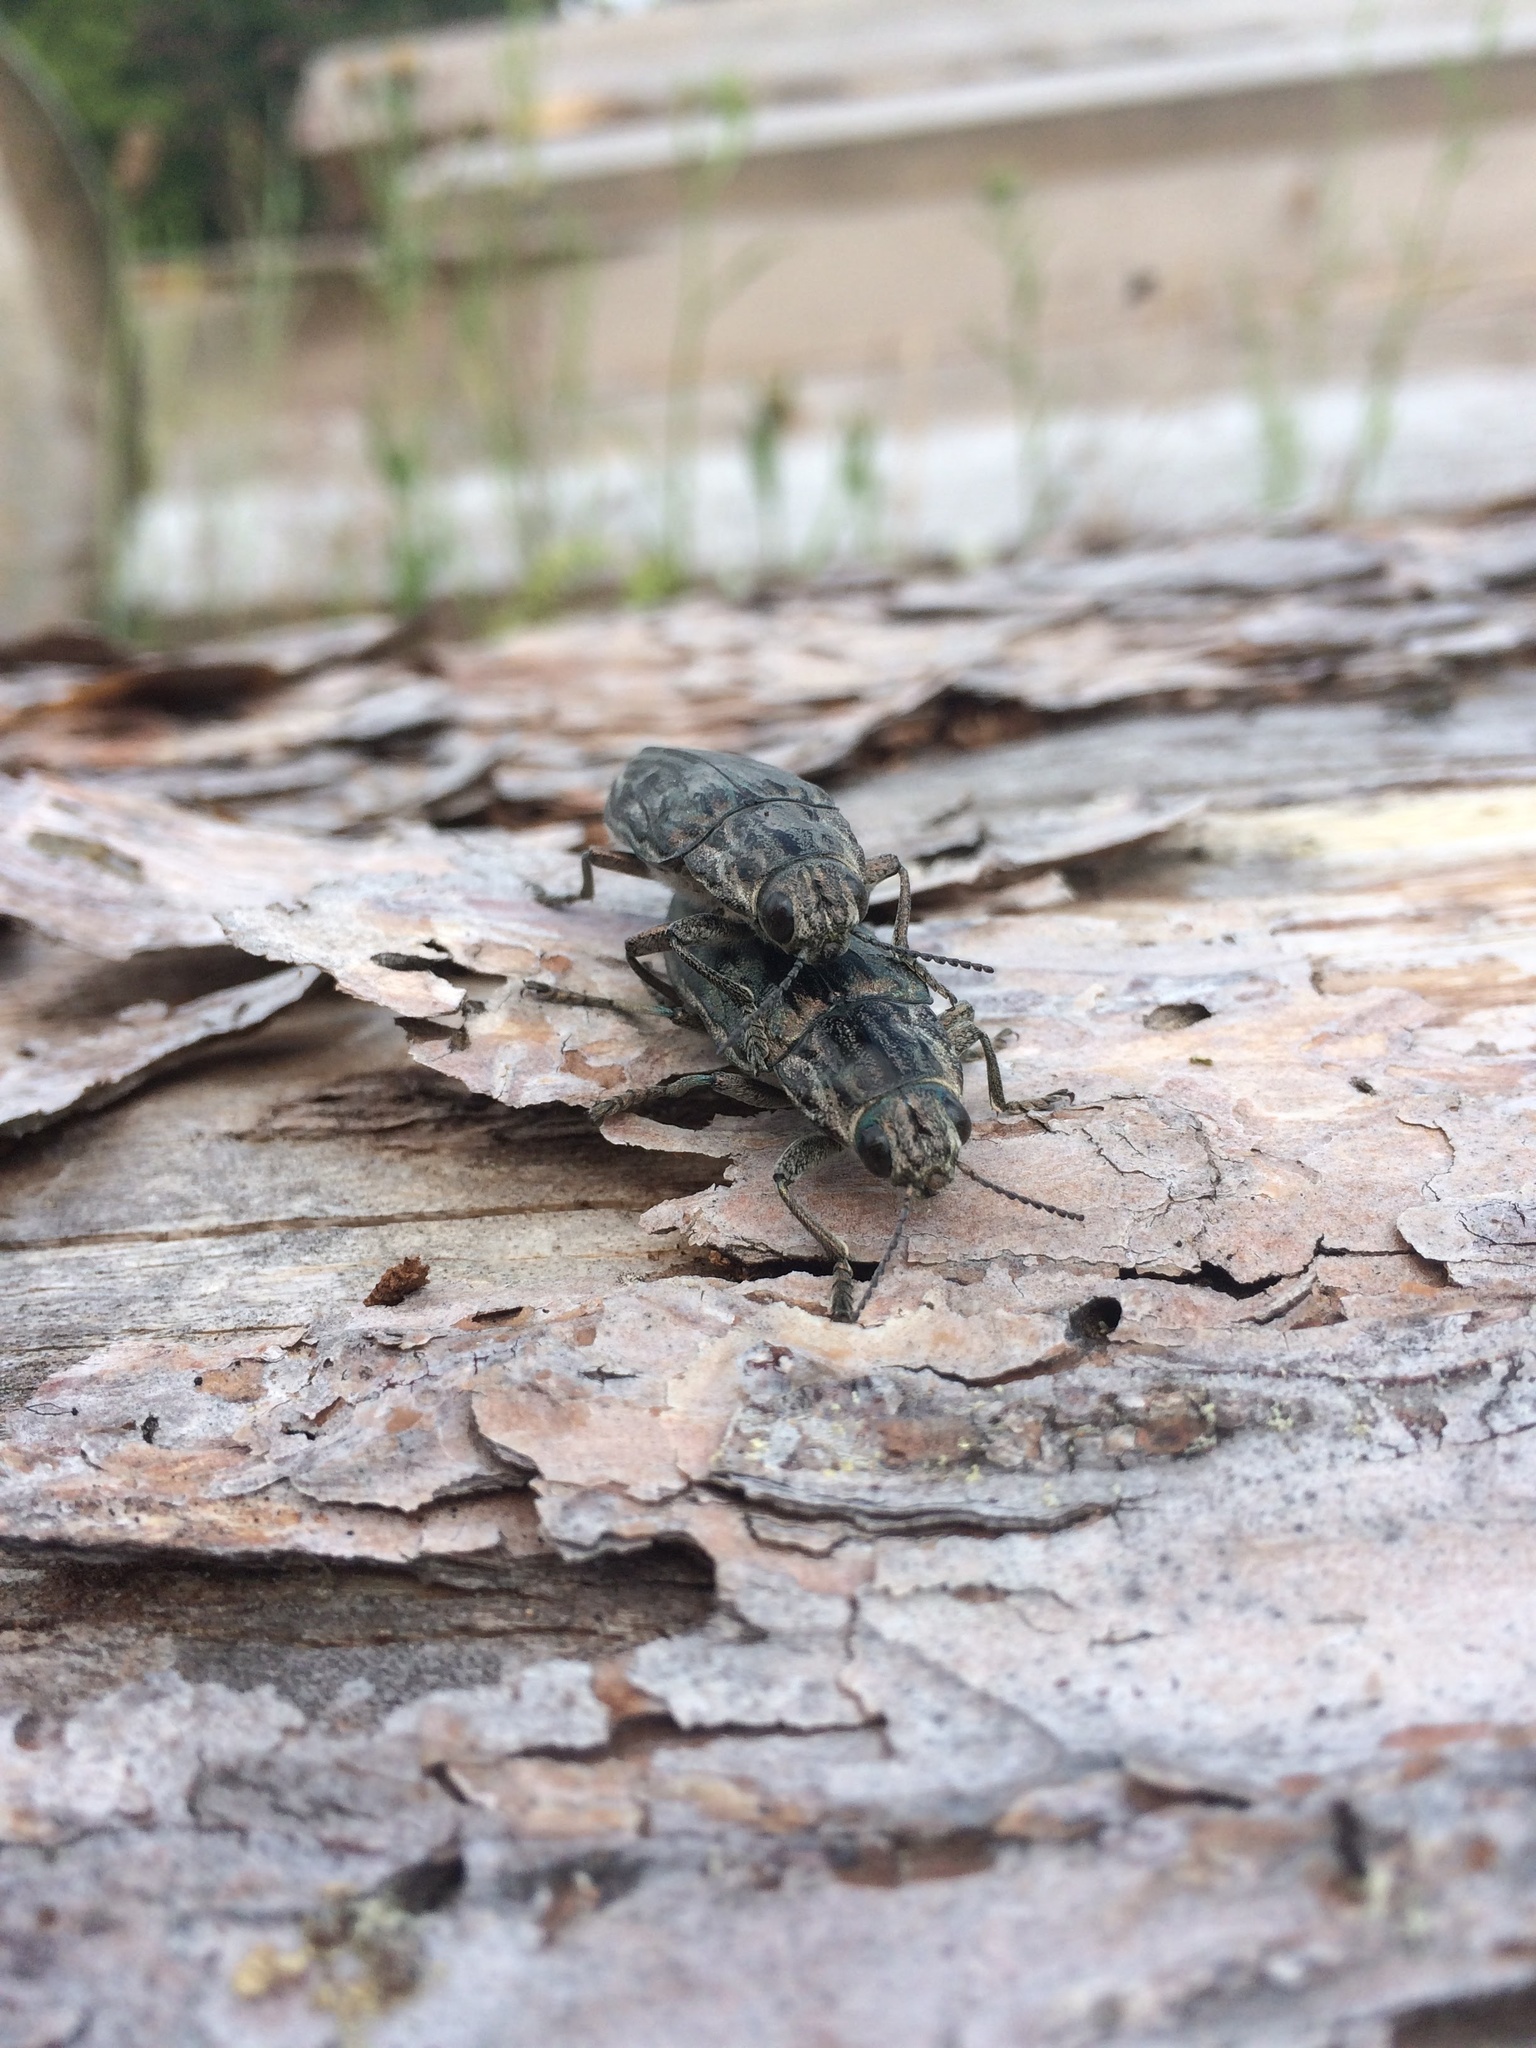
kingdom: Animalia
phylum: Arthropoda
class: Insecta
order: Coleoptera
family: Buprestidae
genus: Chalcophora
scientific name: Chalcophora mariana
